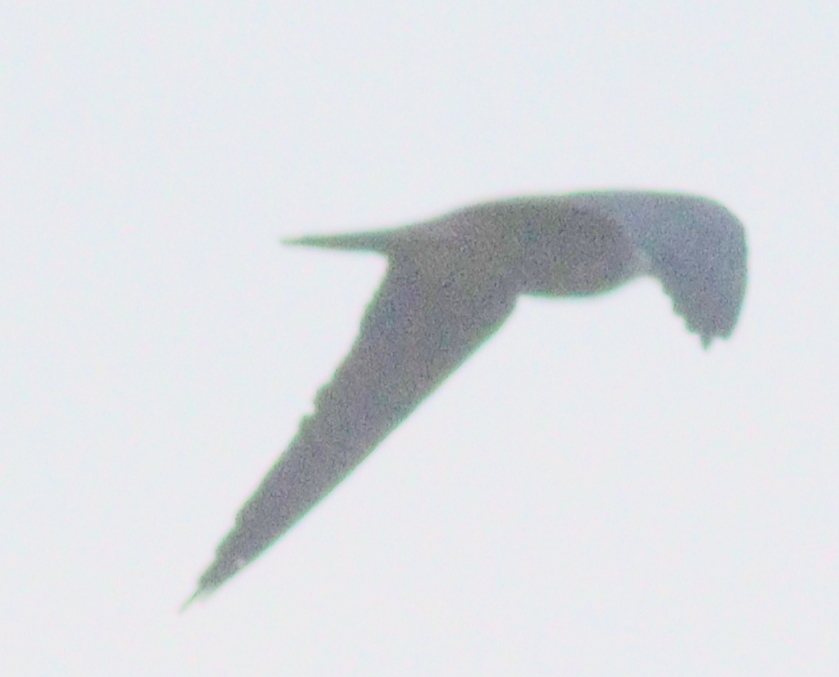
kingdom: Animalia
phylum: Chordata
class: Aves
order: Falconiformes
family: Falconidae
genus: Falco
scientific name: Falco subbuteo
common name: Eurasian hobby
